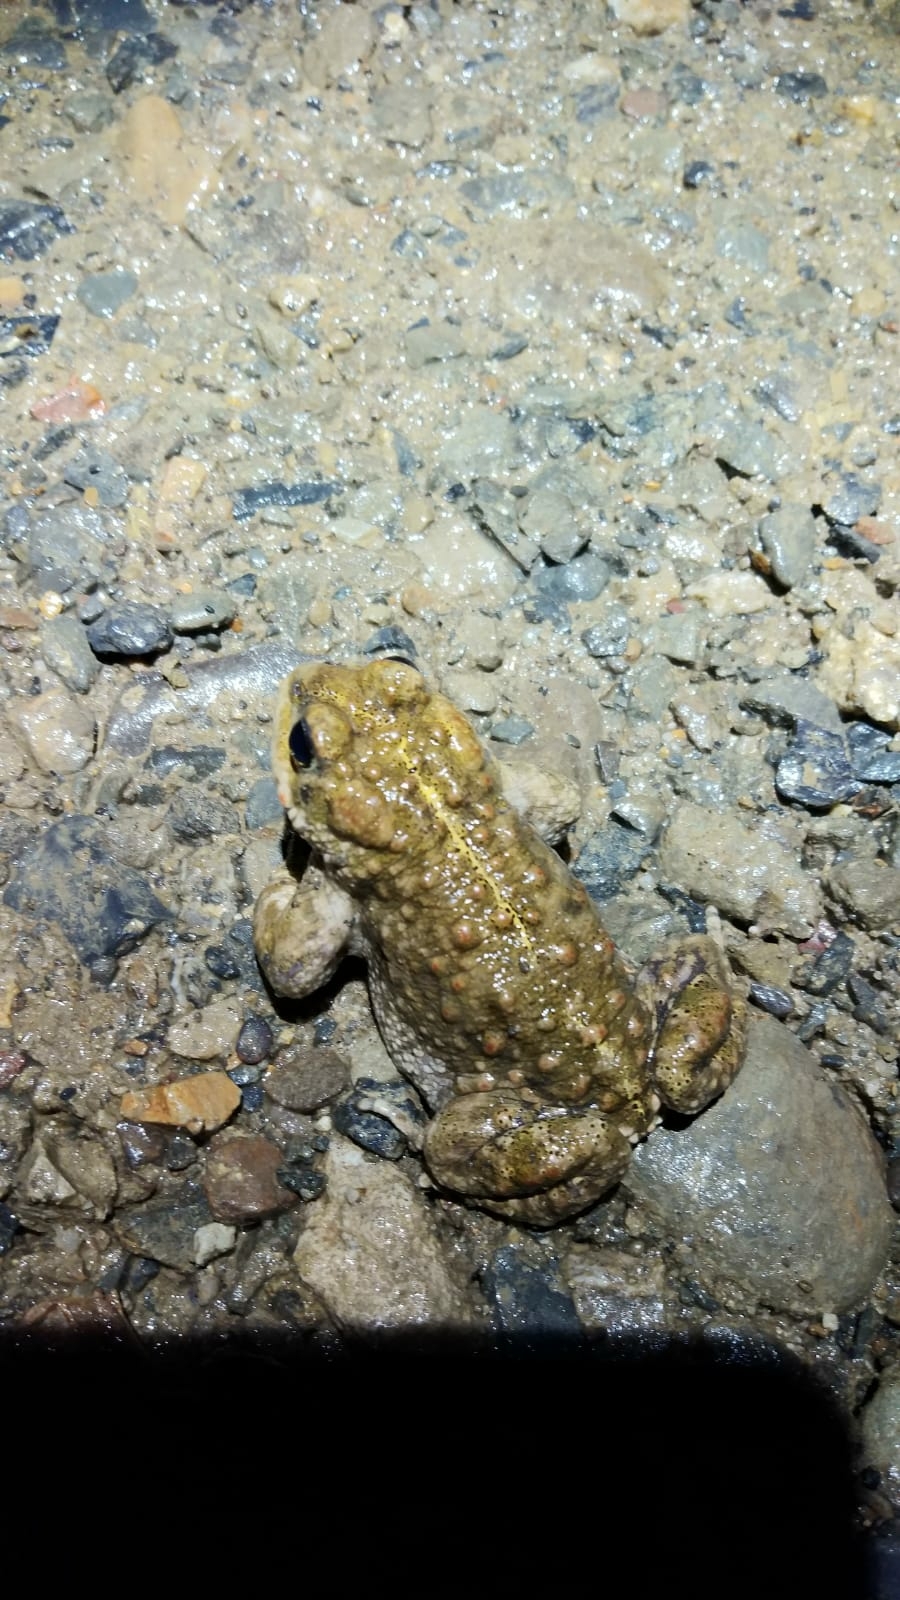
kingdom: Animalia
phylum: Chordata
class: Amphibia
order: Anura
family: Bufonidae
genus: Epidalea
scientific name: Epidalea calamita
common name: Natterjack toad
